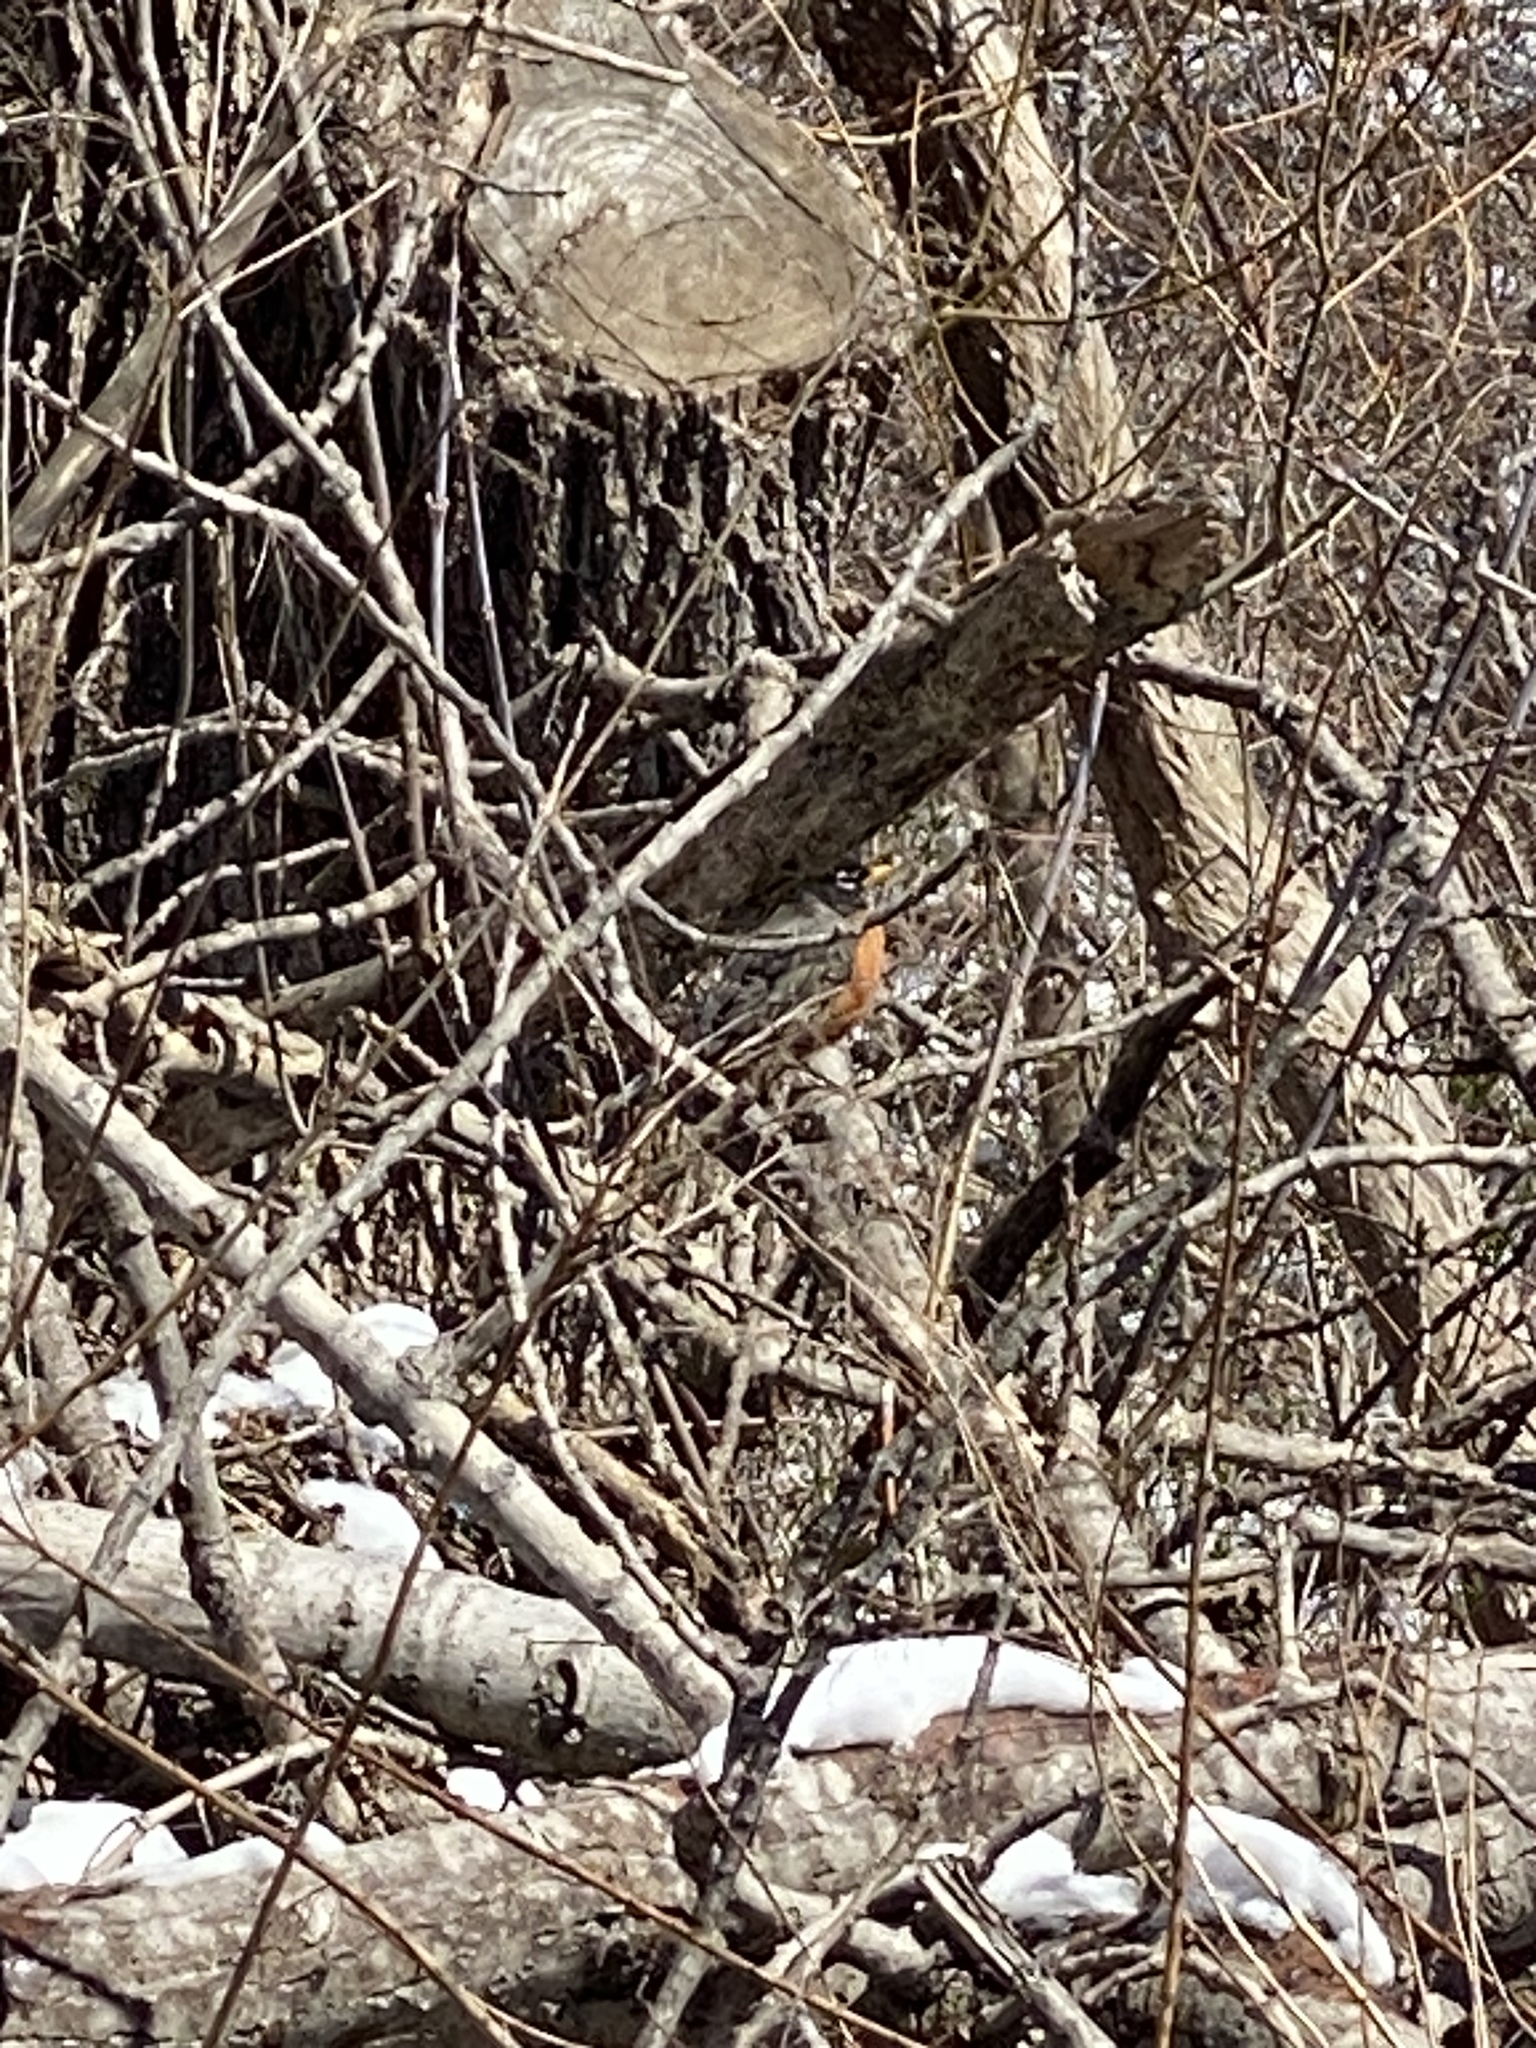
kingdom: Animalia
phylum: Chordata
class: Aves
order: Passeriformes
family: Turdidae
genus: Turdus
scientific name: Turdus migratorius
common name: American robin
